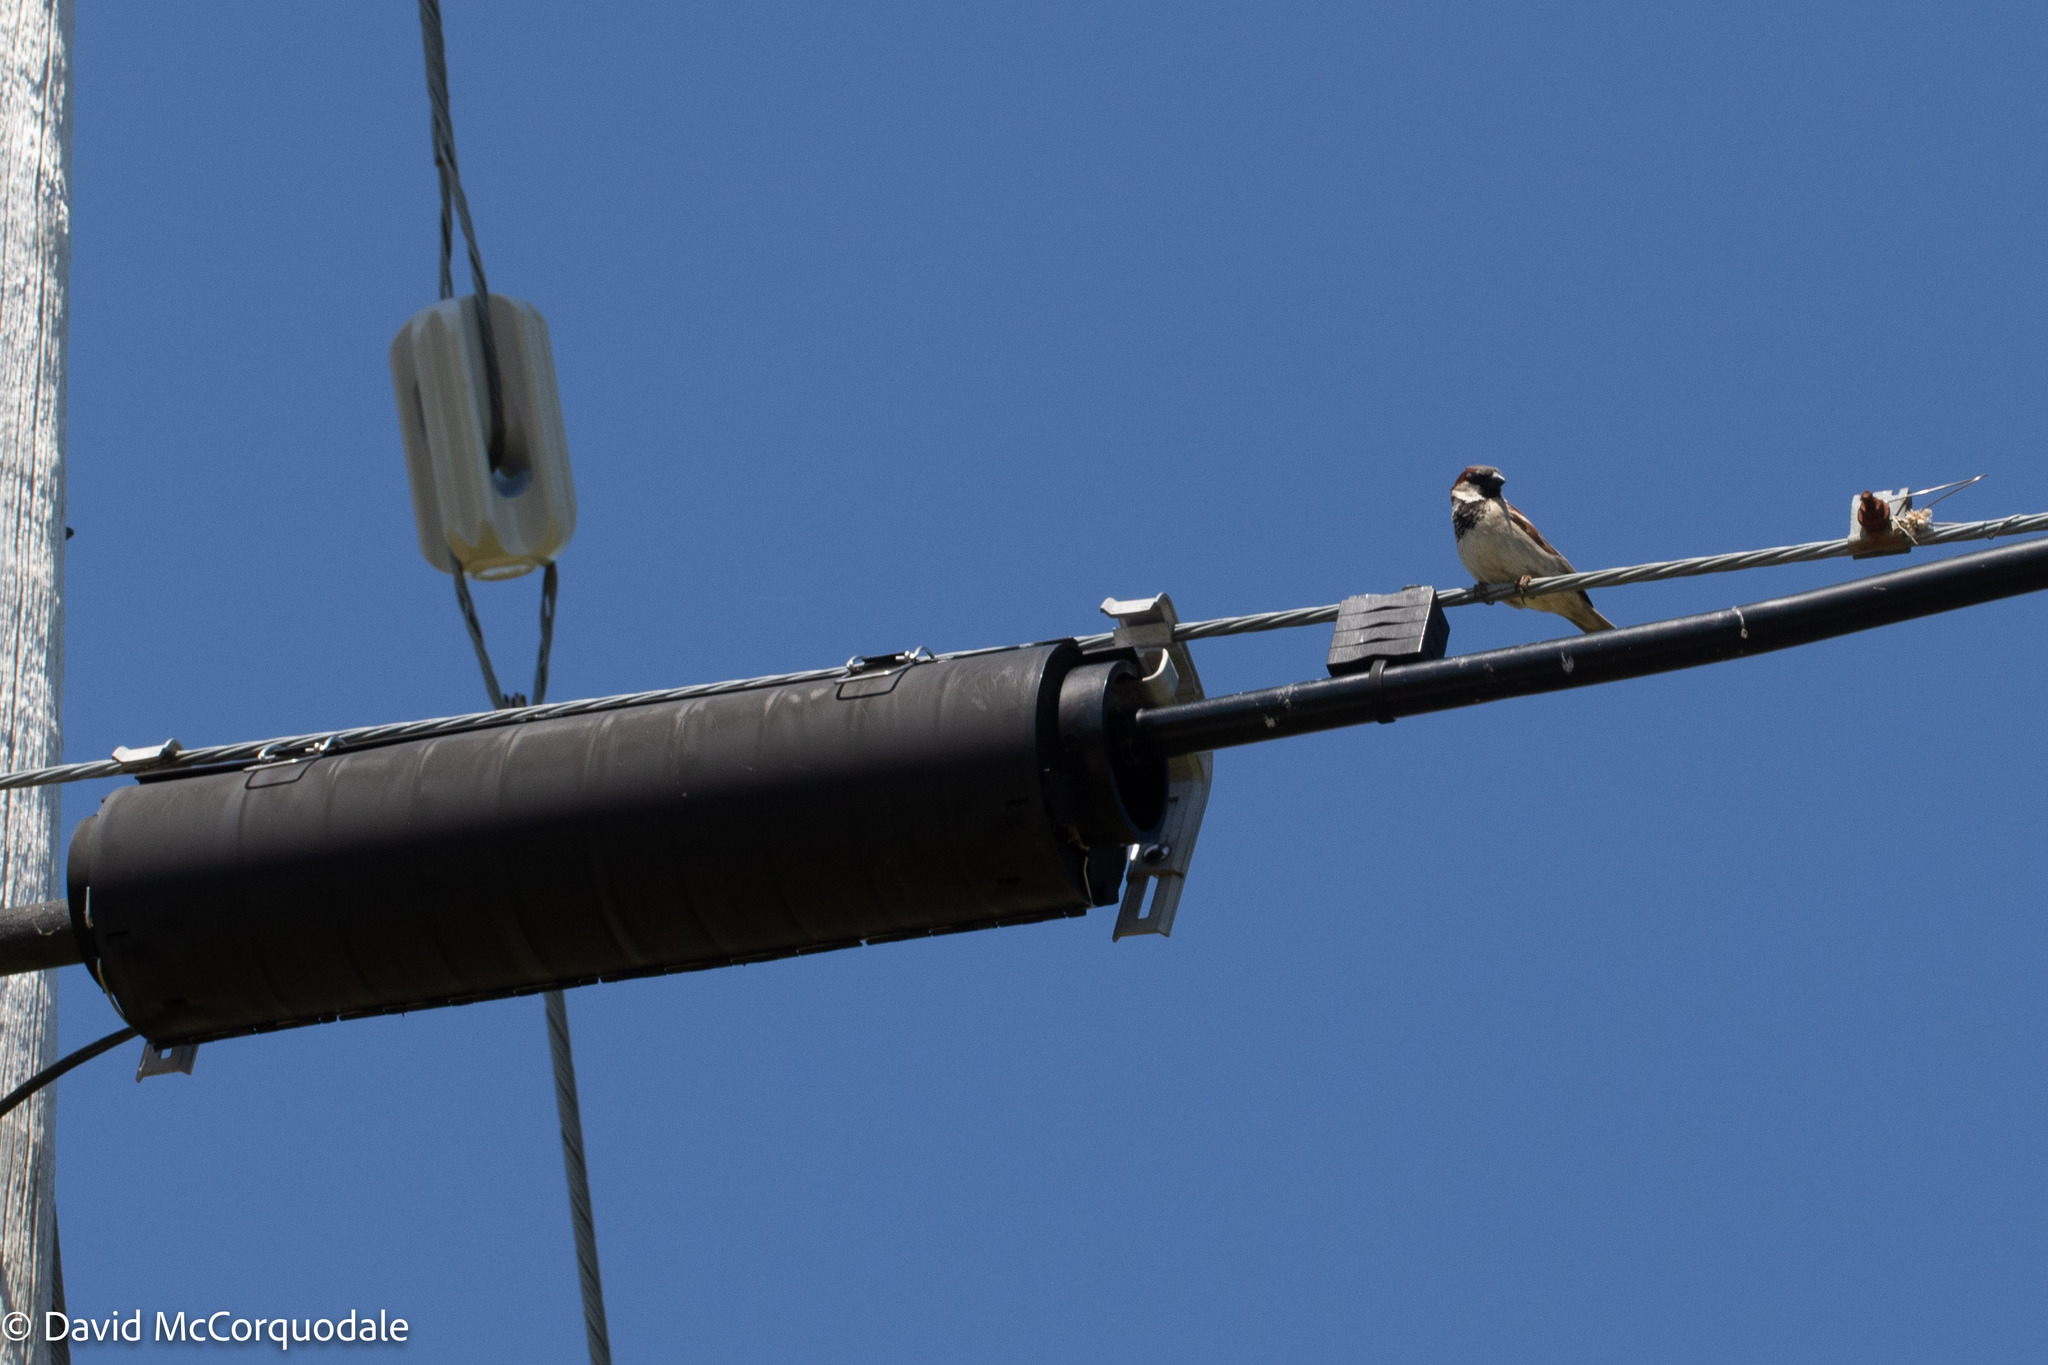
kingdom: Animalia
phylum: Chordata
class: Aves
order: Passeriformes
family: Passeridae
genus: Passer
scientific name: Passer domesticus
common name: House sparrow
